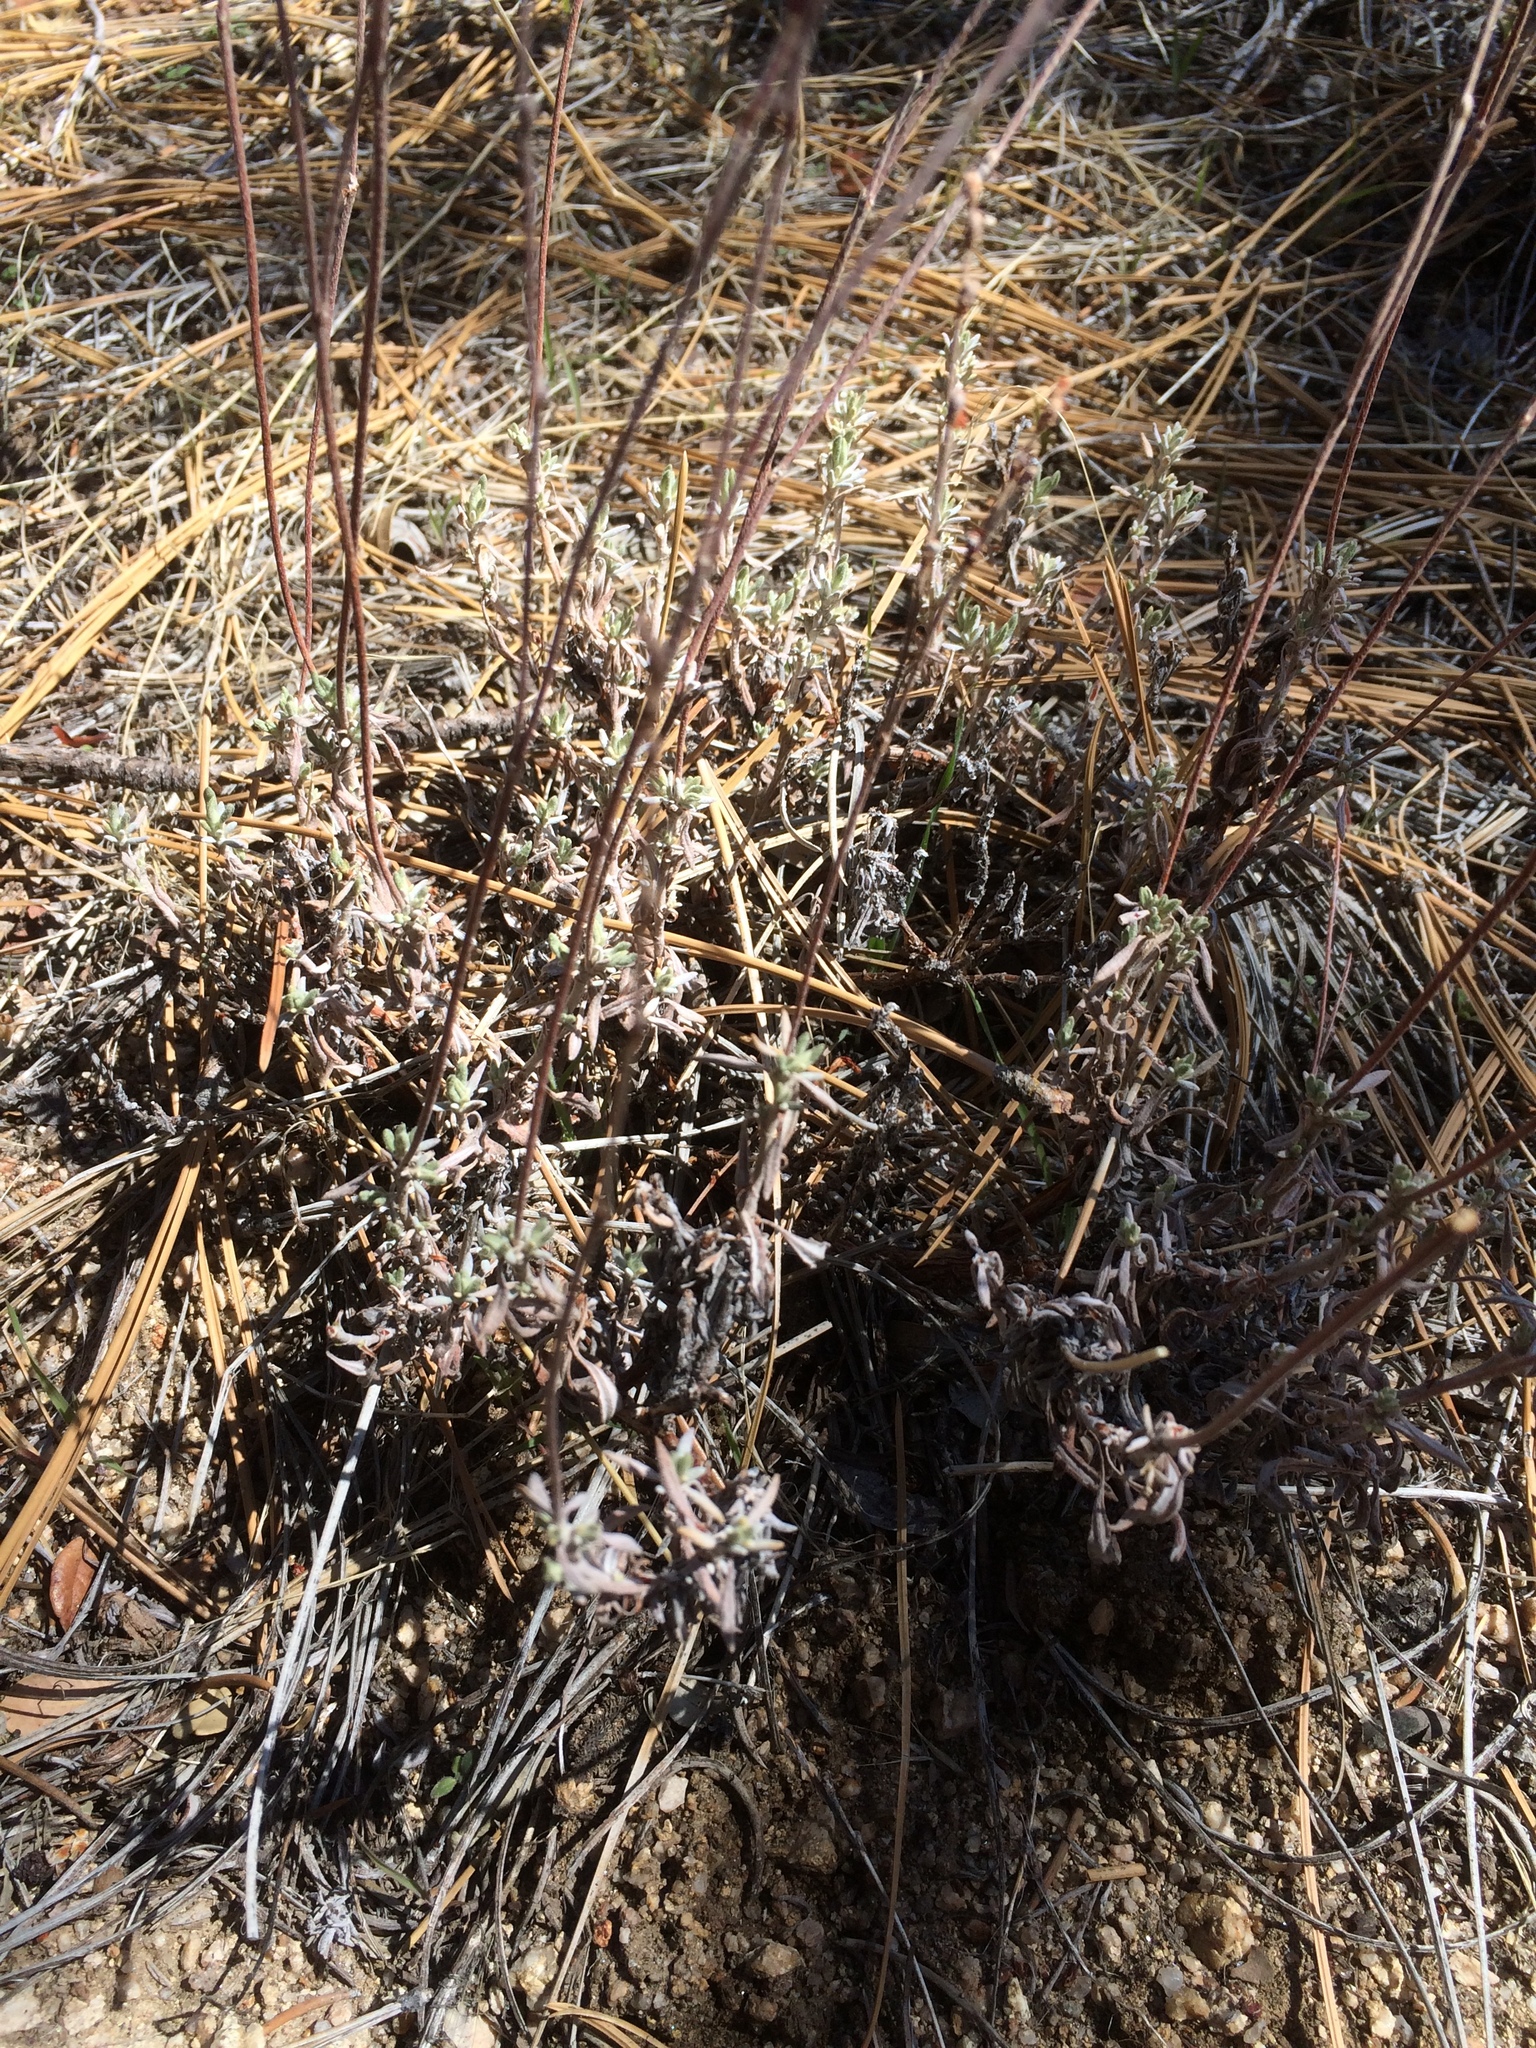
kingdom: Plantae
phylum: Tracheophyta
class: Magnoliopsida
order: Caryophyllales
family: Polygonaceae
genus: Eriogonum
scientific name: Eriogonum wrightii
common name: Bastard-sage
